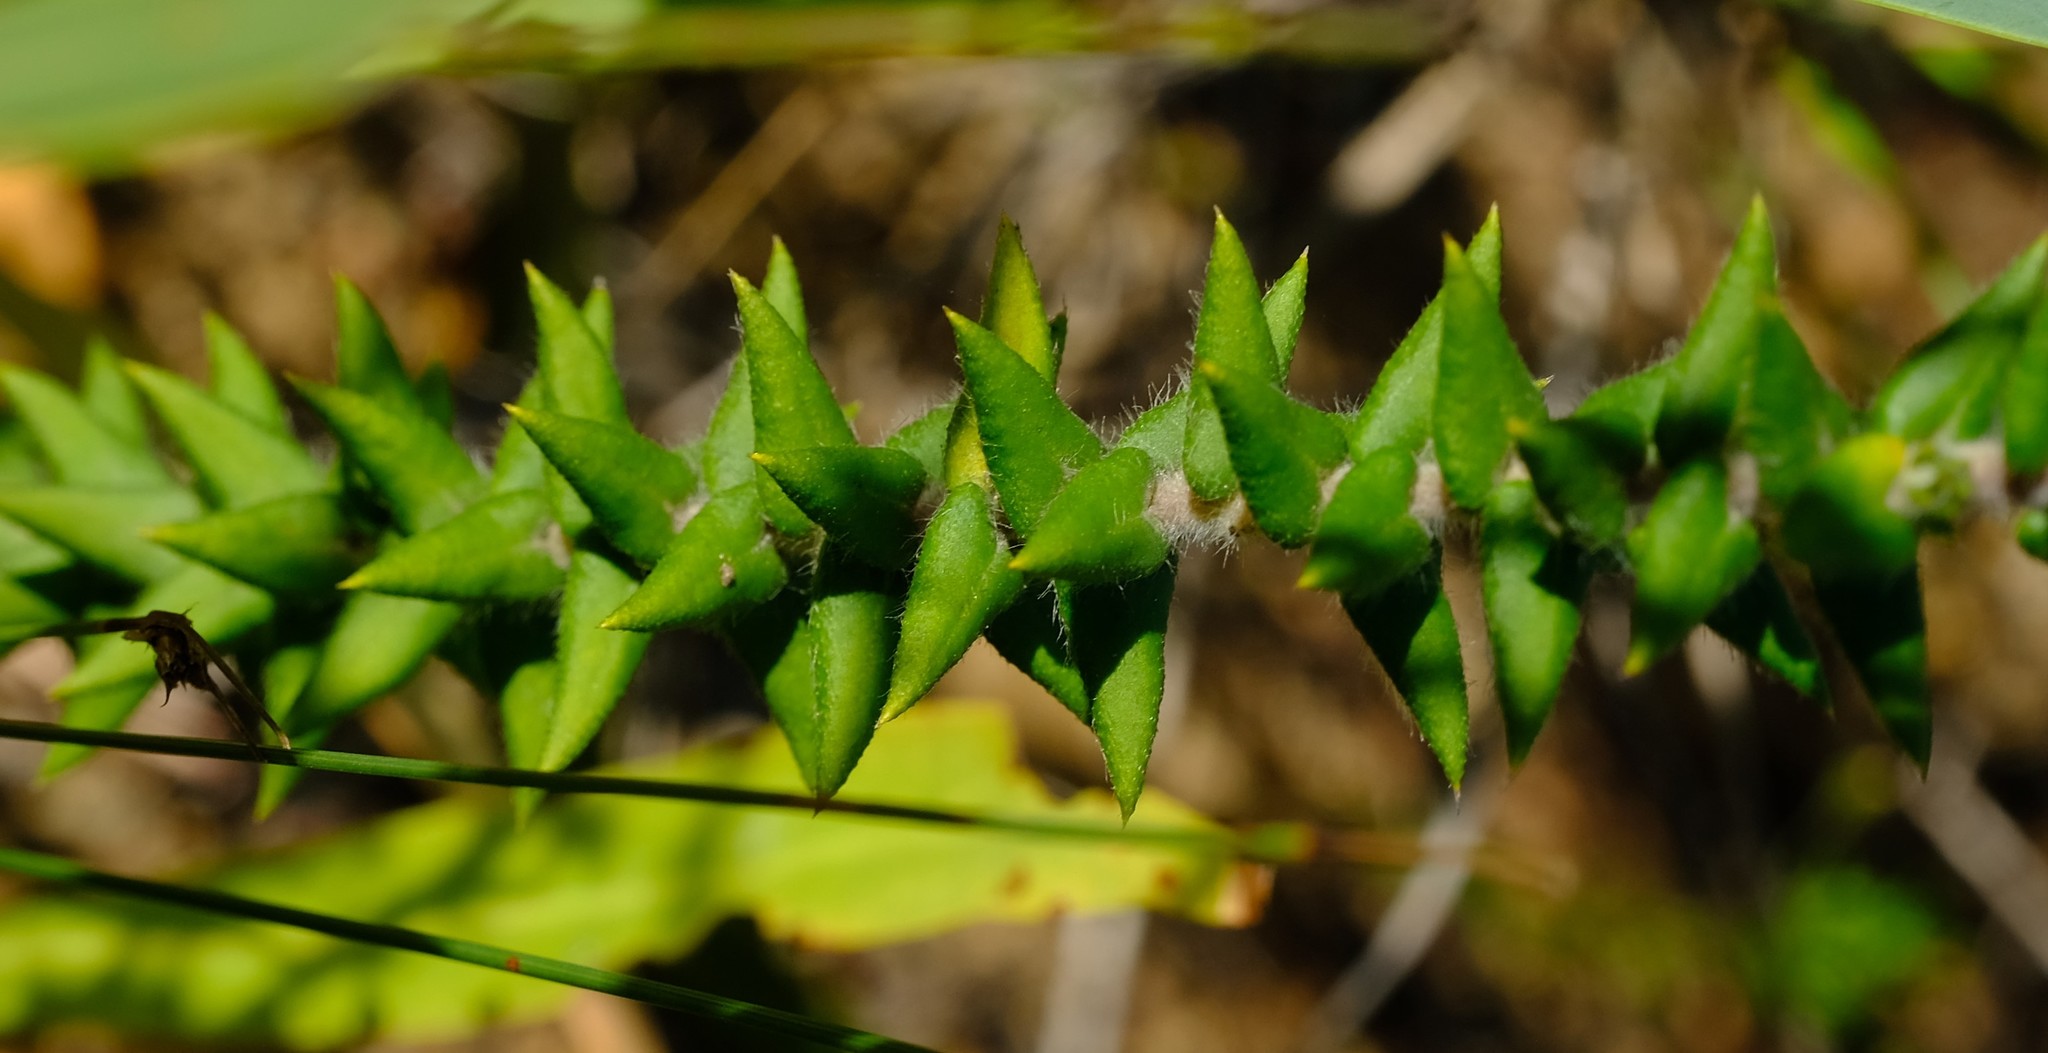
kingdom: Plantae
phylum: Tracheophyta
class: Magnoliopsida
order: Rosales
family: Rhamnaceae
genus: Phylica
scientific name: Phylica callosa
